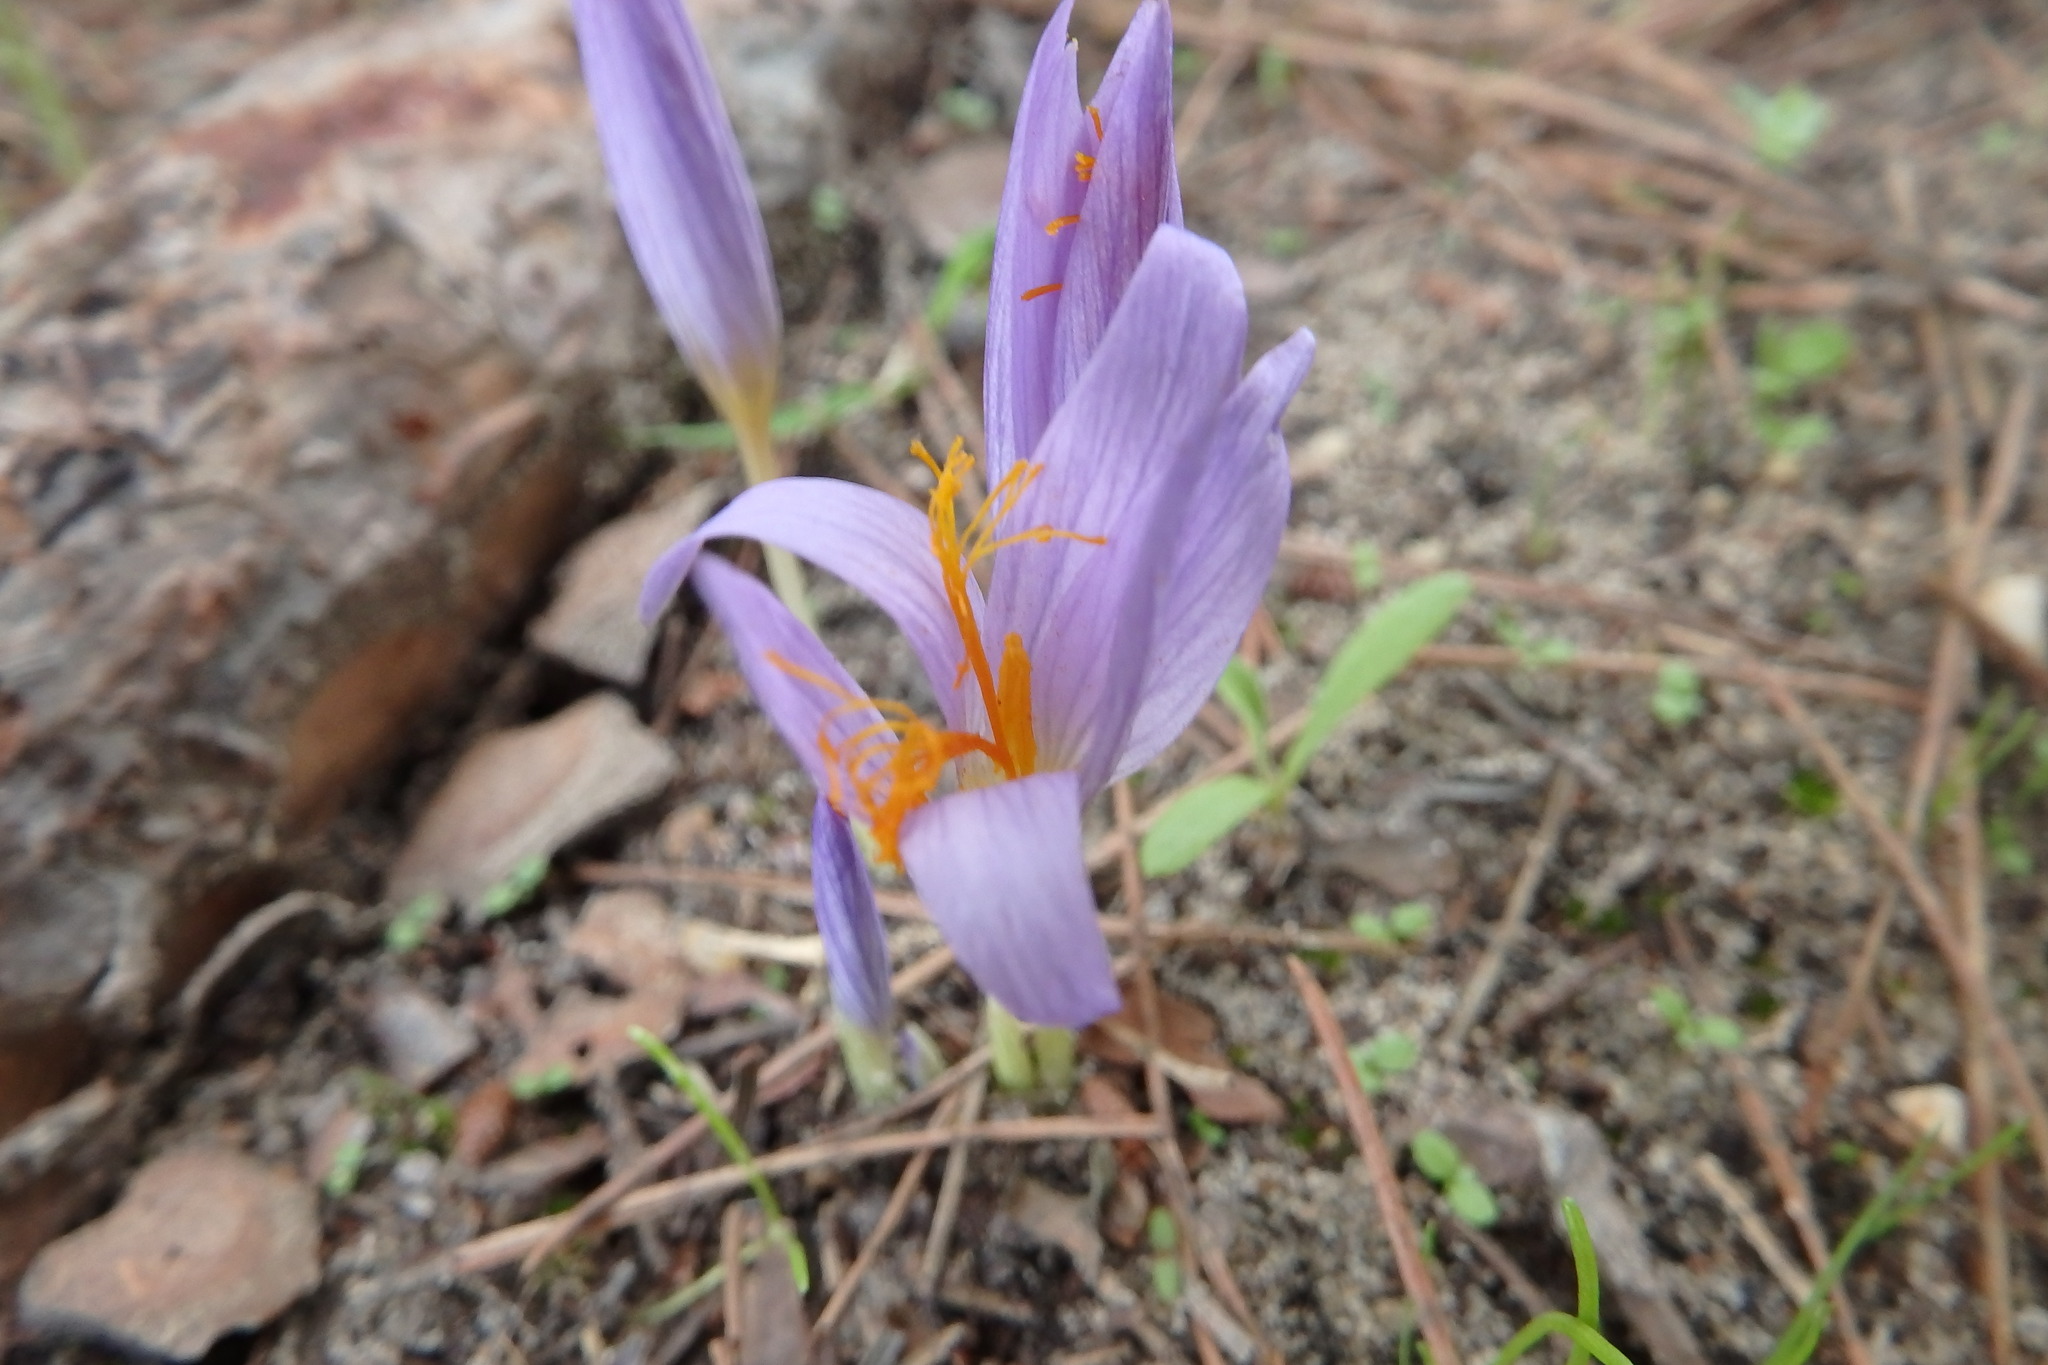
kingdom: Plantae
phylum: Tracheophyta
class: Liliopsida
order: Asparagales
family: Iridaceae
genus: Crocus
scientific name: Crocus serotinus
